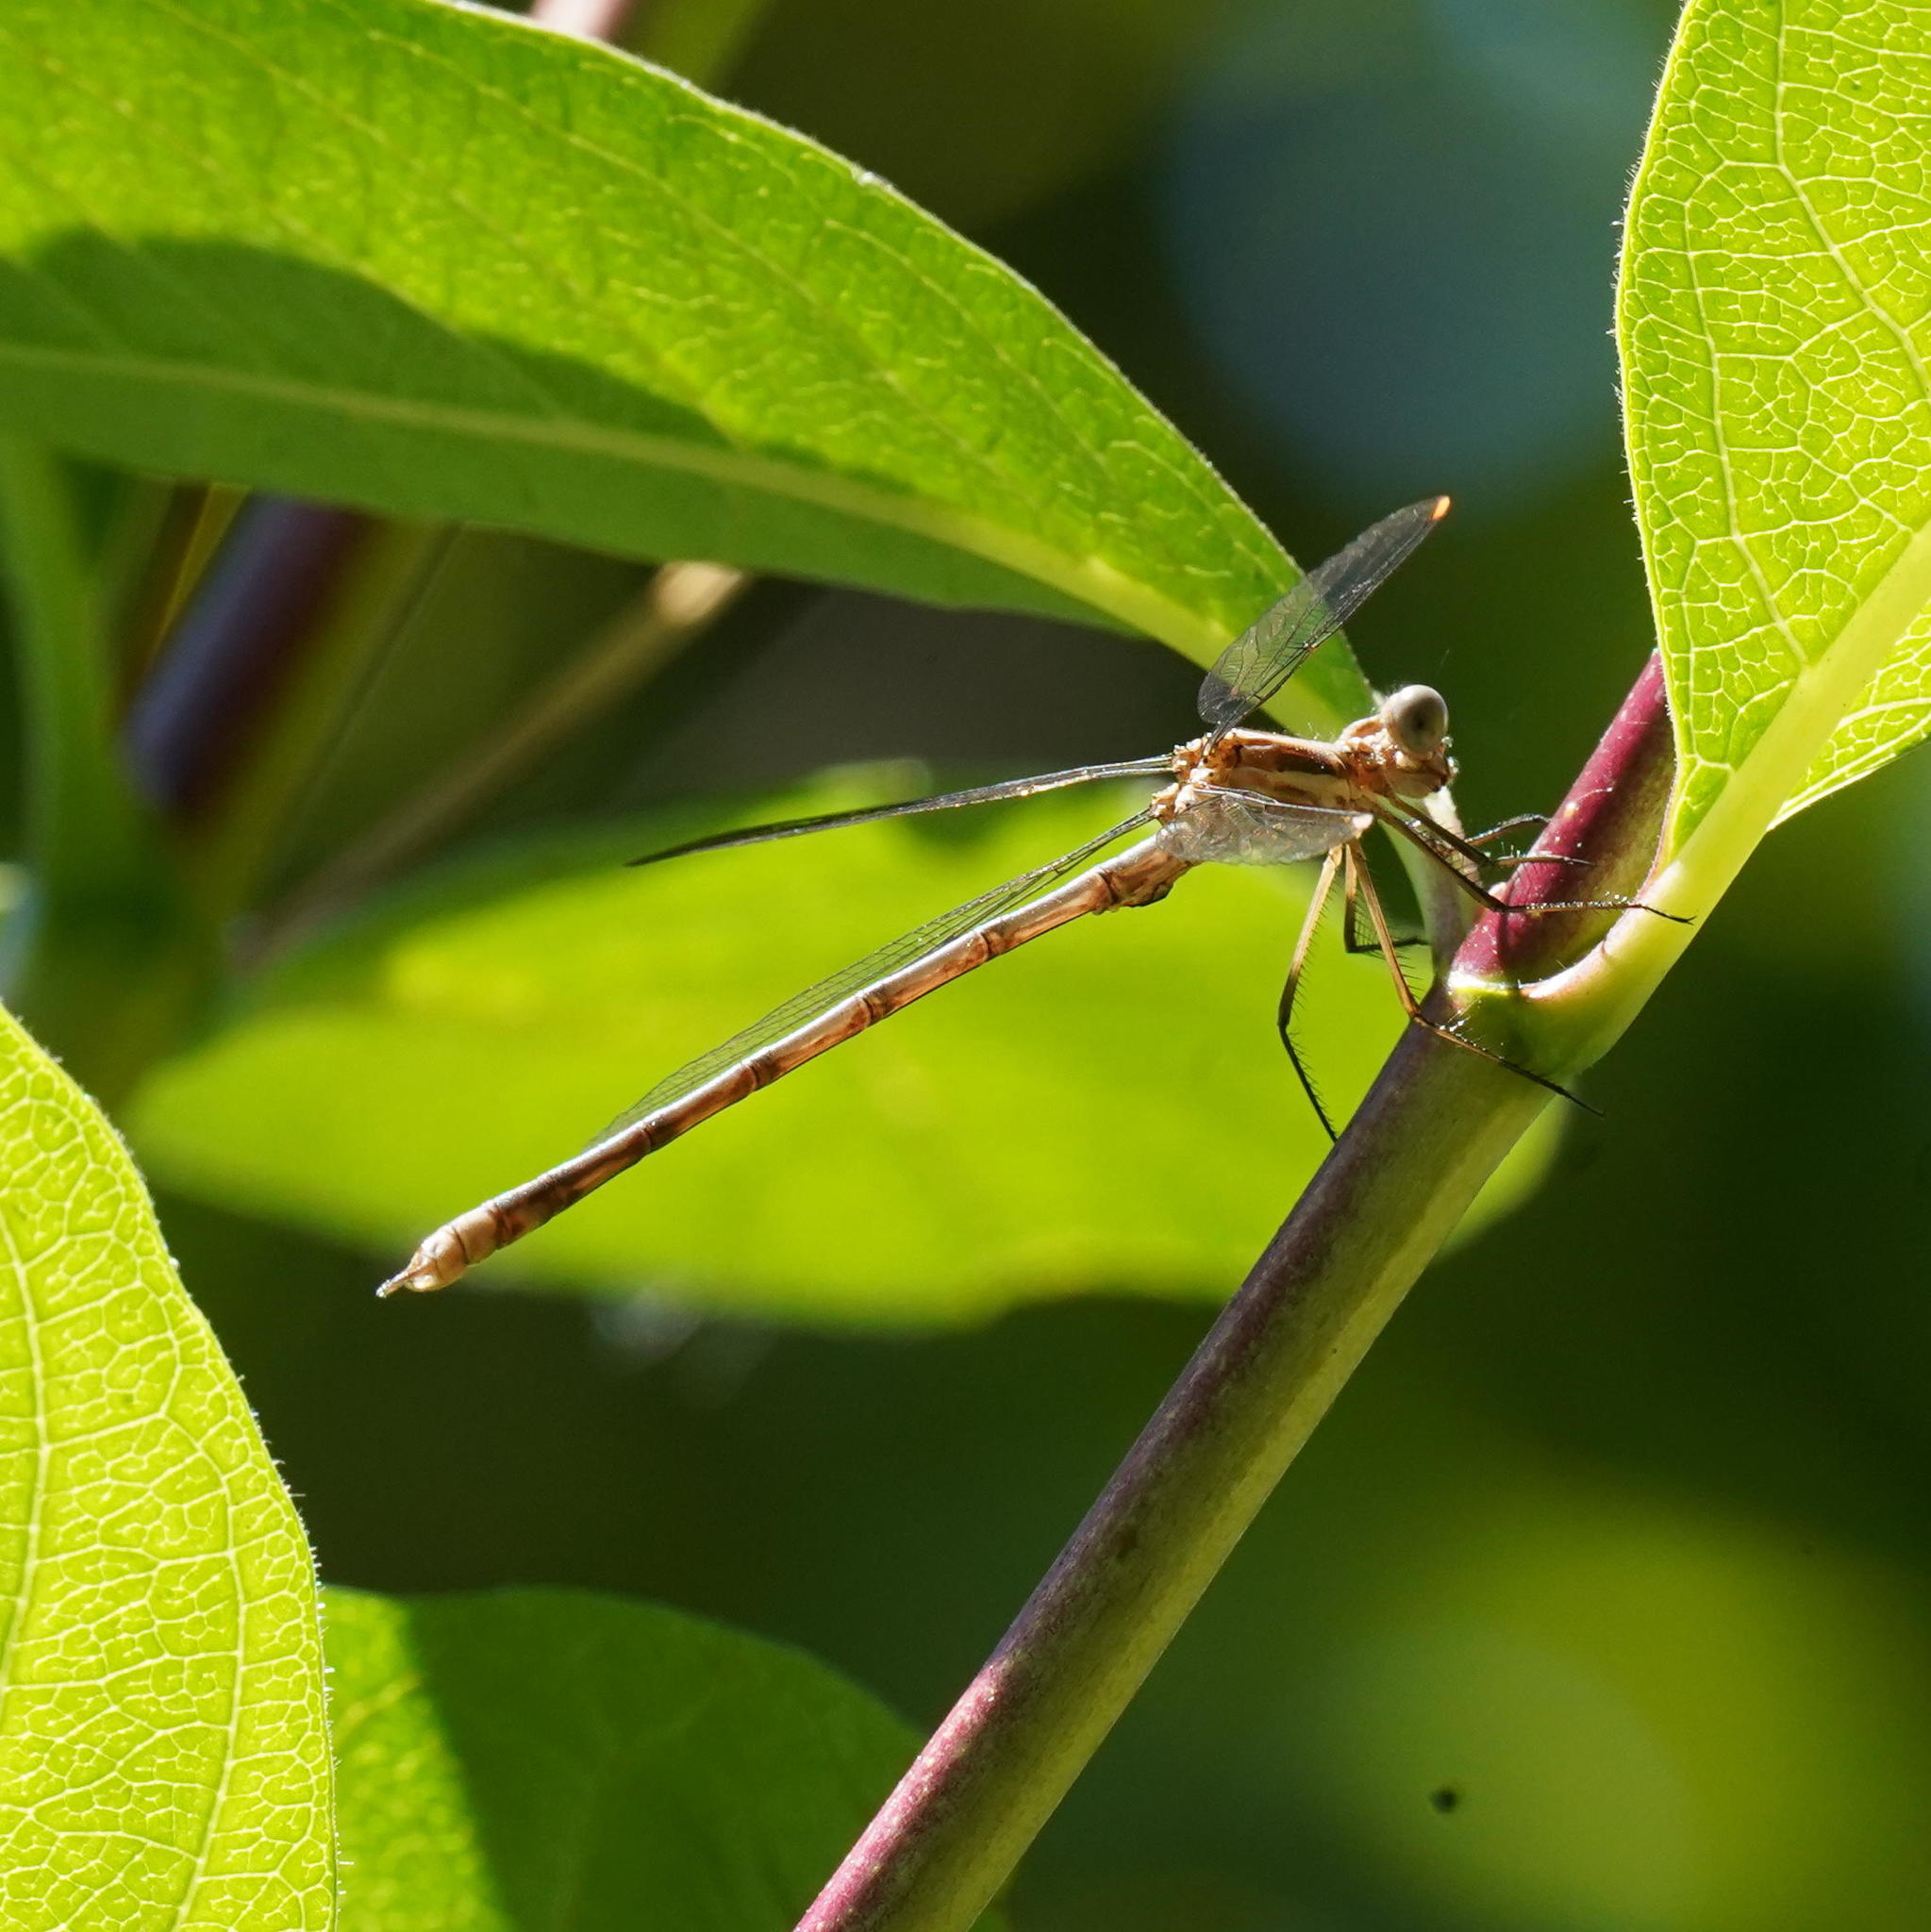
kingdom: Animalia
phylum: Arthropoda
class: Insecta
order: Odonata
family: Lestidae
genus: Archilestes
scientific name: Archilestes californicus
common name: California spreadwing
